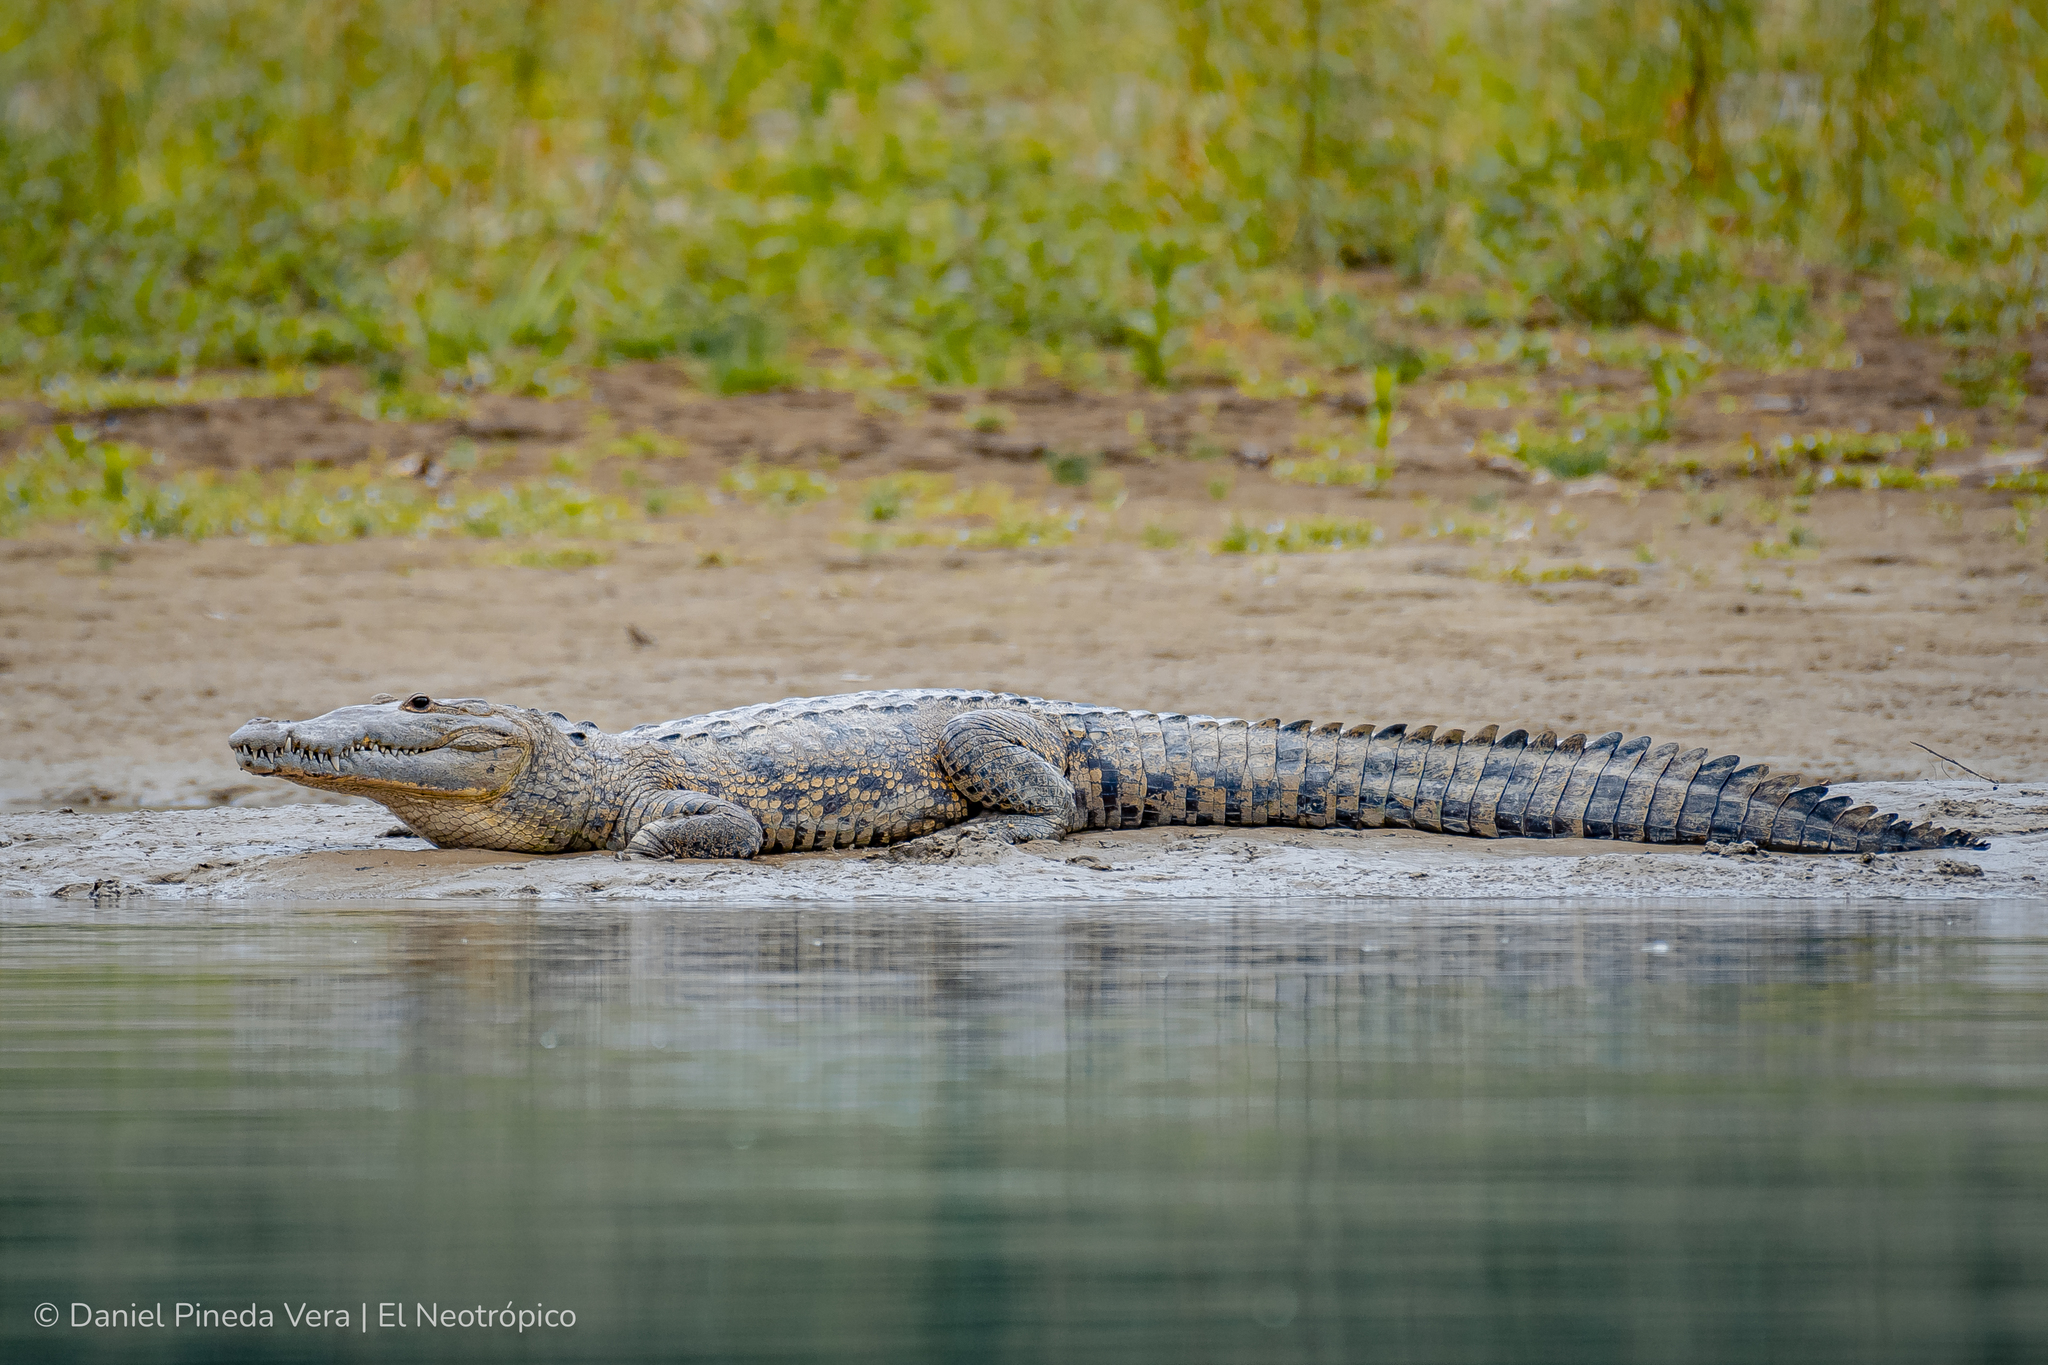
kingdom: Animalia
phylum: Chordata
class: Crocodylia
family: Crocodylidae
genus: Crocodylus
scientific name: Crocodylus moreletii
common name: Morelet's crocodile
